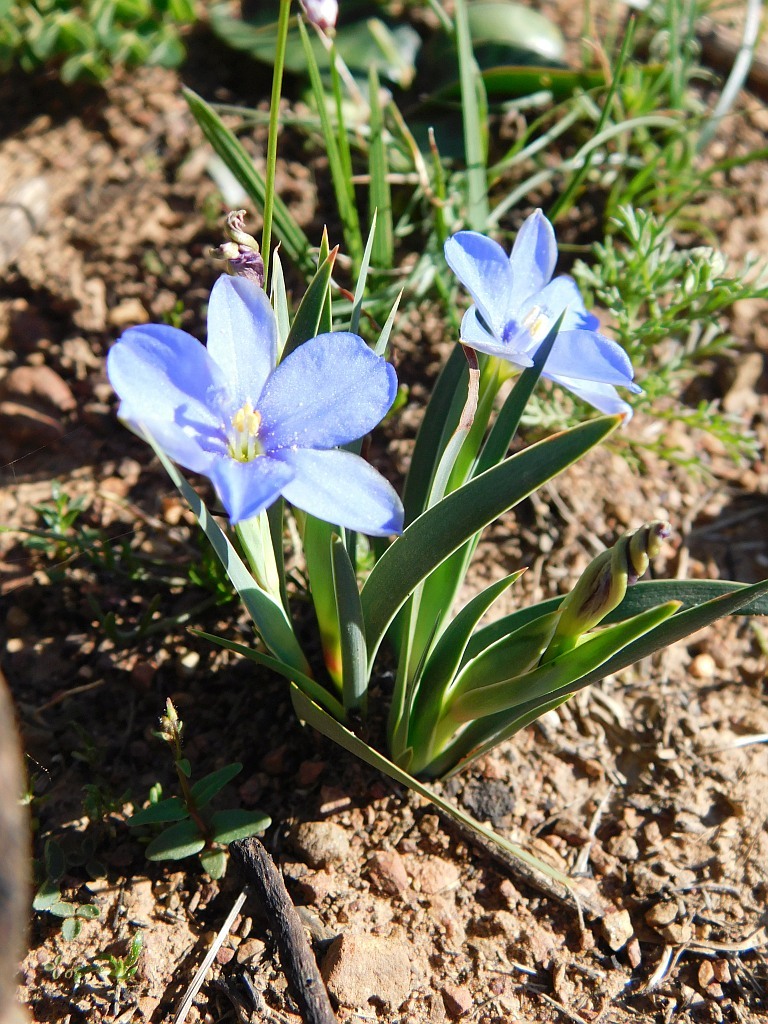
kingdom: Plantae
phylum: Tracheophyta
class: Liliopsida
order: Asparagales
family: Iridaceae
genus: Aristea
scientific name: Aristea africana
